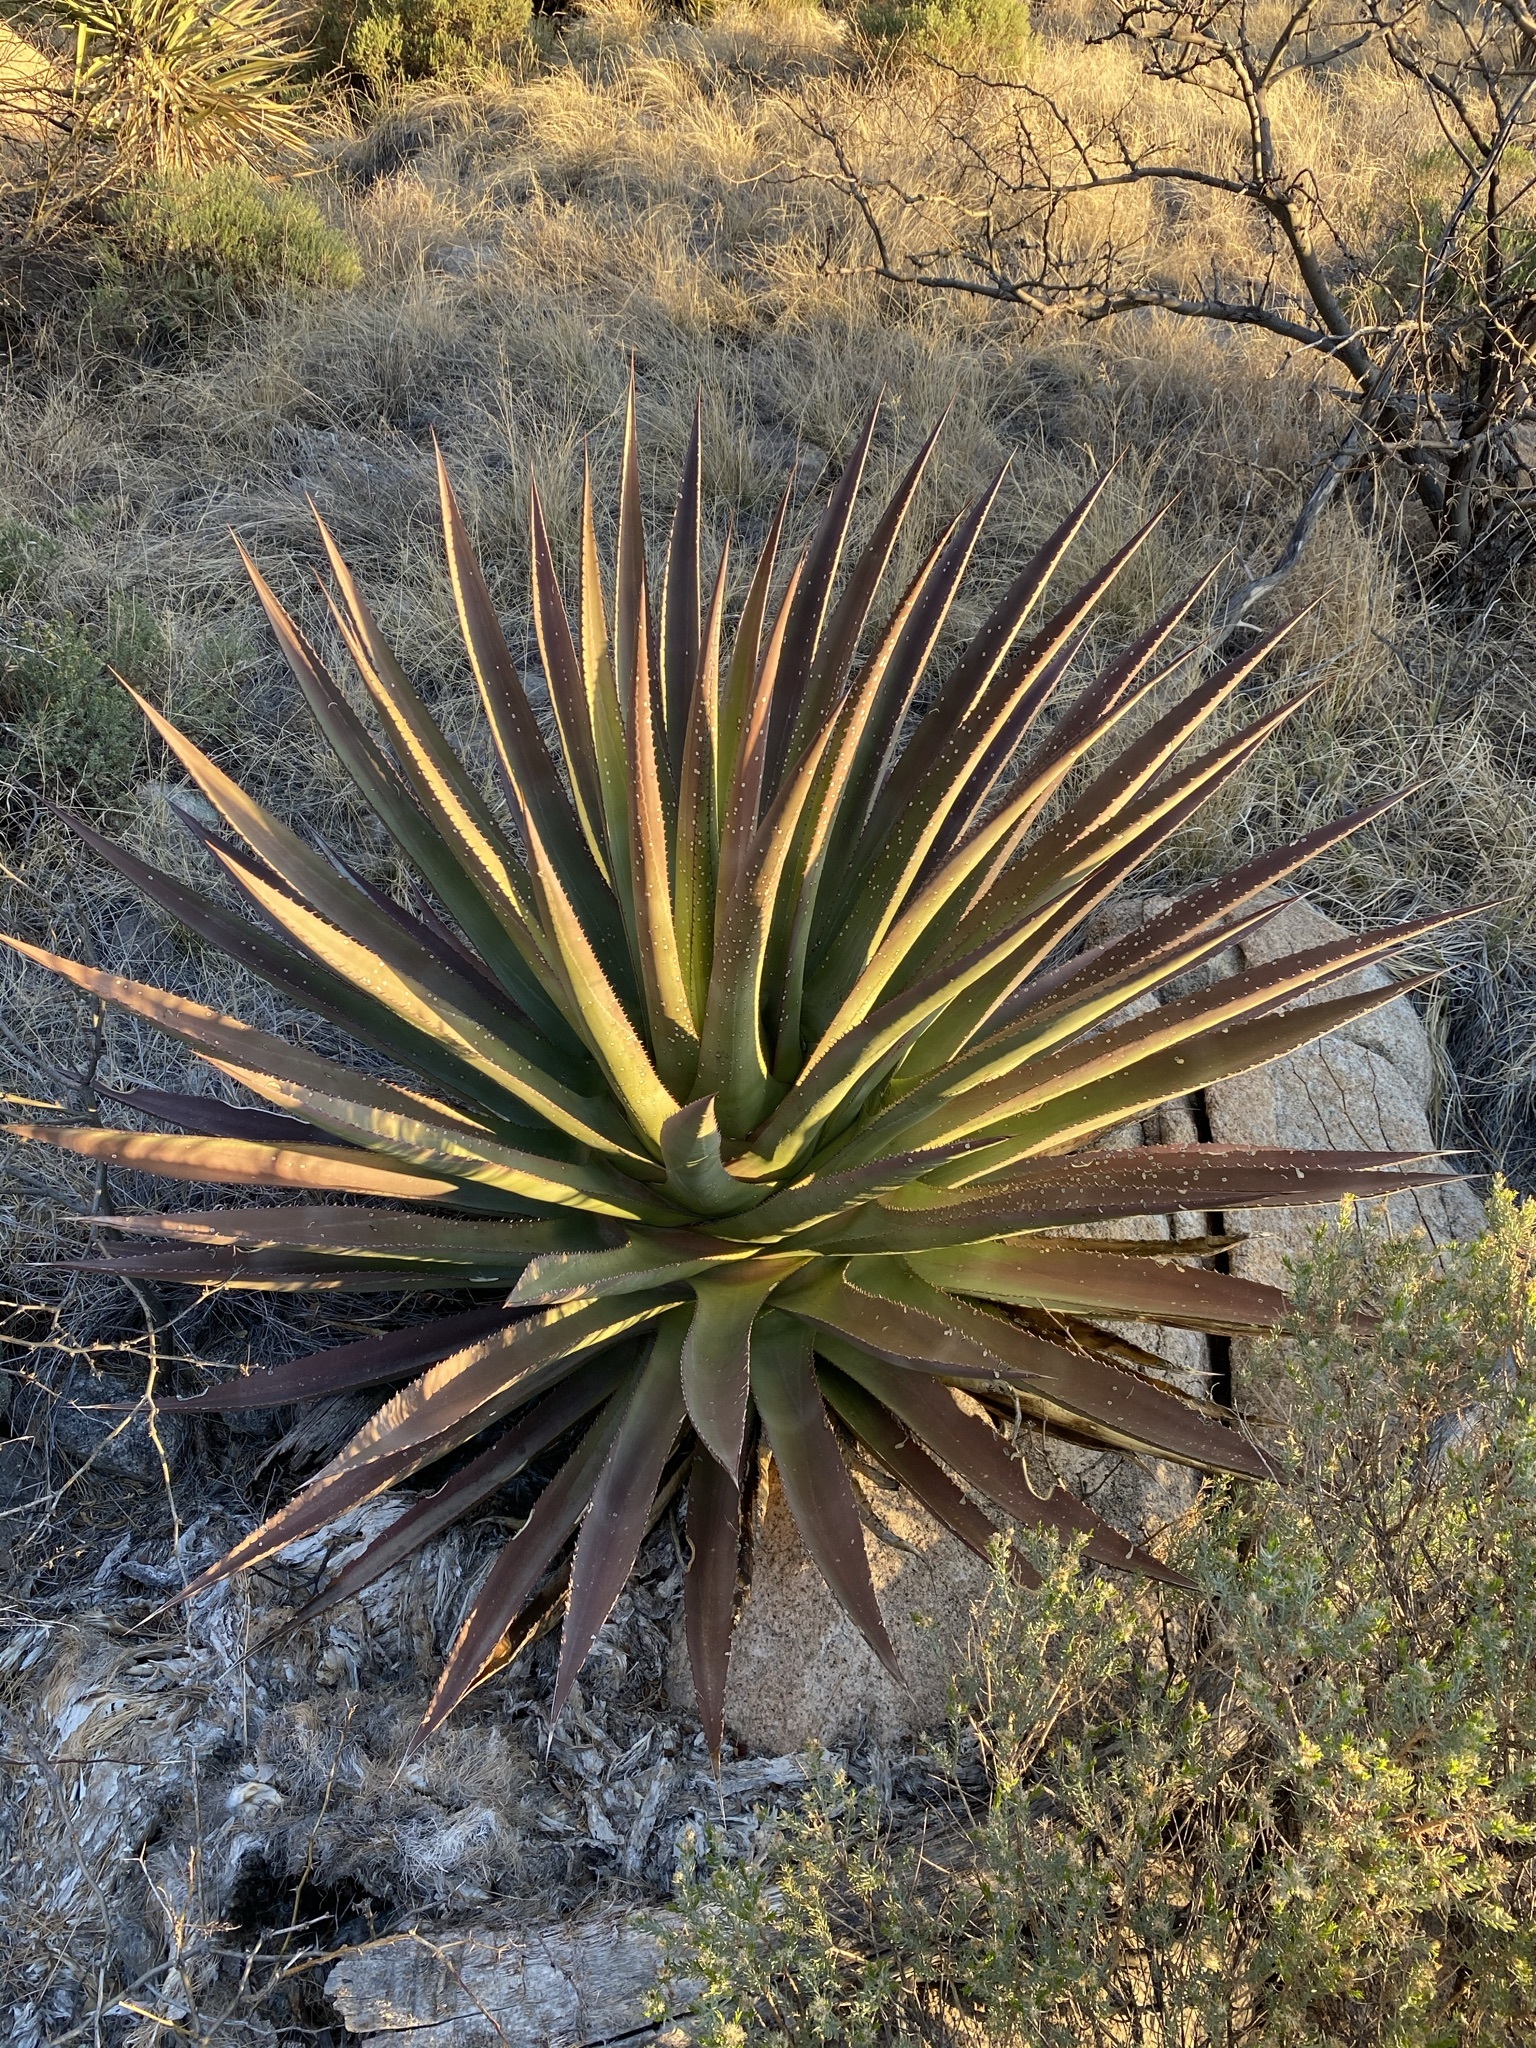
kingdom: Plantae
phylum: Tracheophyta
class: Liliopsida
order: Asparagales
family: Asparagaceae
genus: Agave
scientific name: Agave palmeri
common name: Palmer agave
